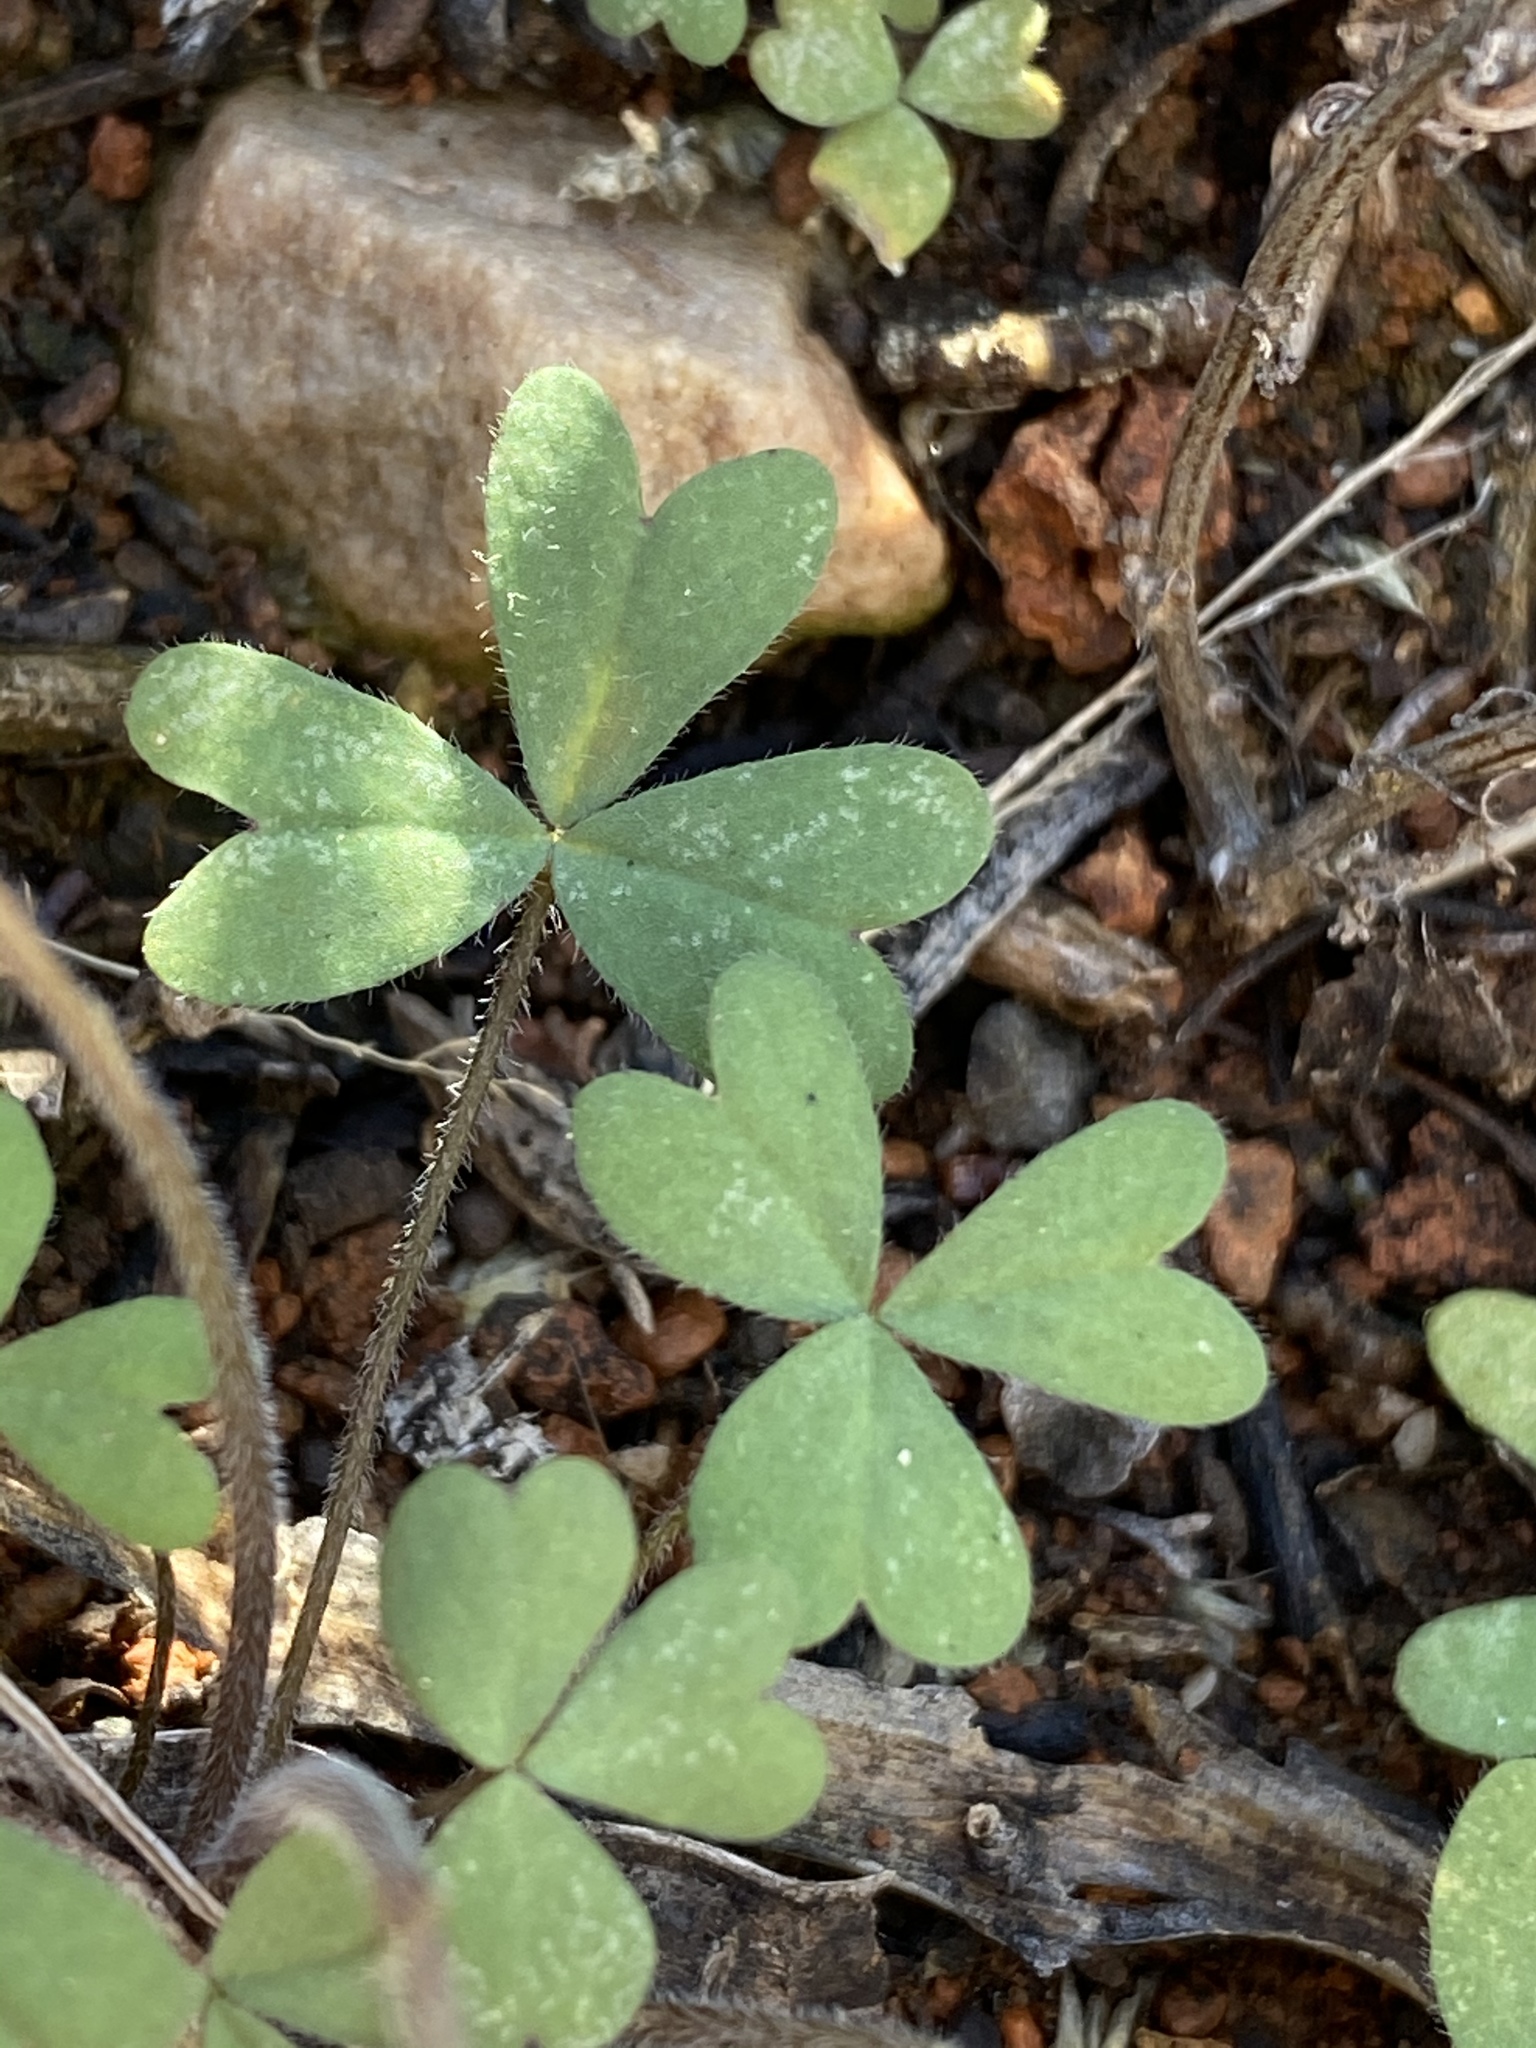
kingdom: Plantae
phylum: Tracheophyta
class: Magnoliopsida
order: Oxalidales
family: Oxalidaceae
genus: Oxalis
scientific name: Oxalis obtusa
